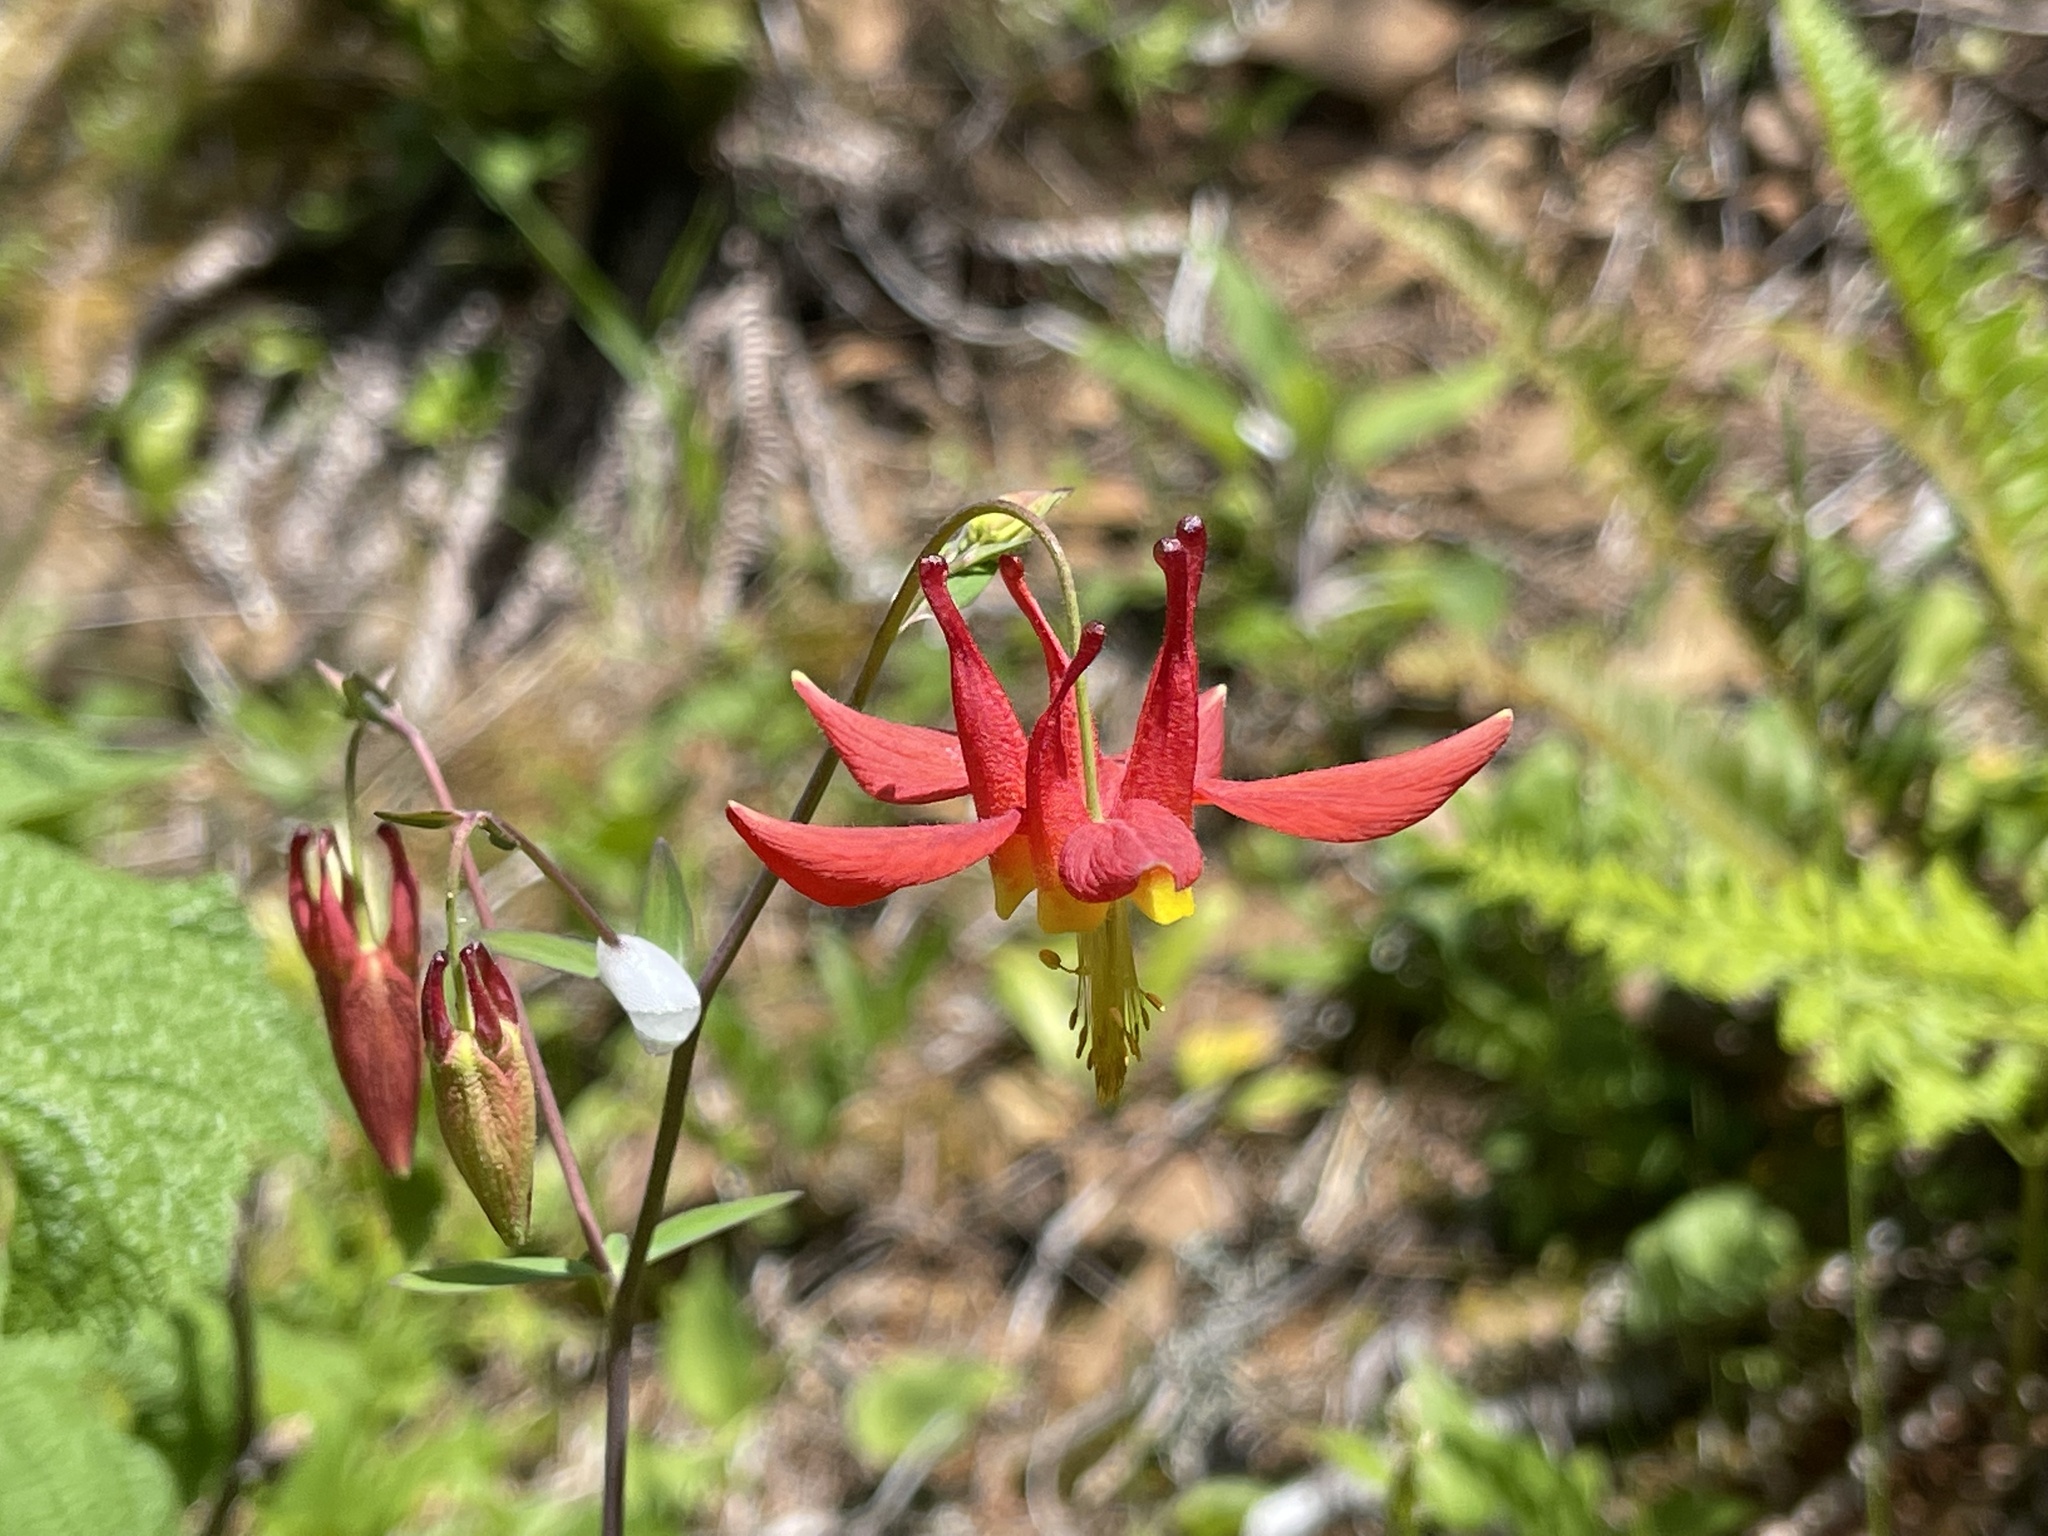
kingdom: Plantae
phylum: Tracheophyta
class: Magnoliopsida
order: Ranunculales
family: Ranunculaceae
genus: Aquilegia
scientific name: Aquilegia formosa
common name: Sitka columbine
